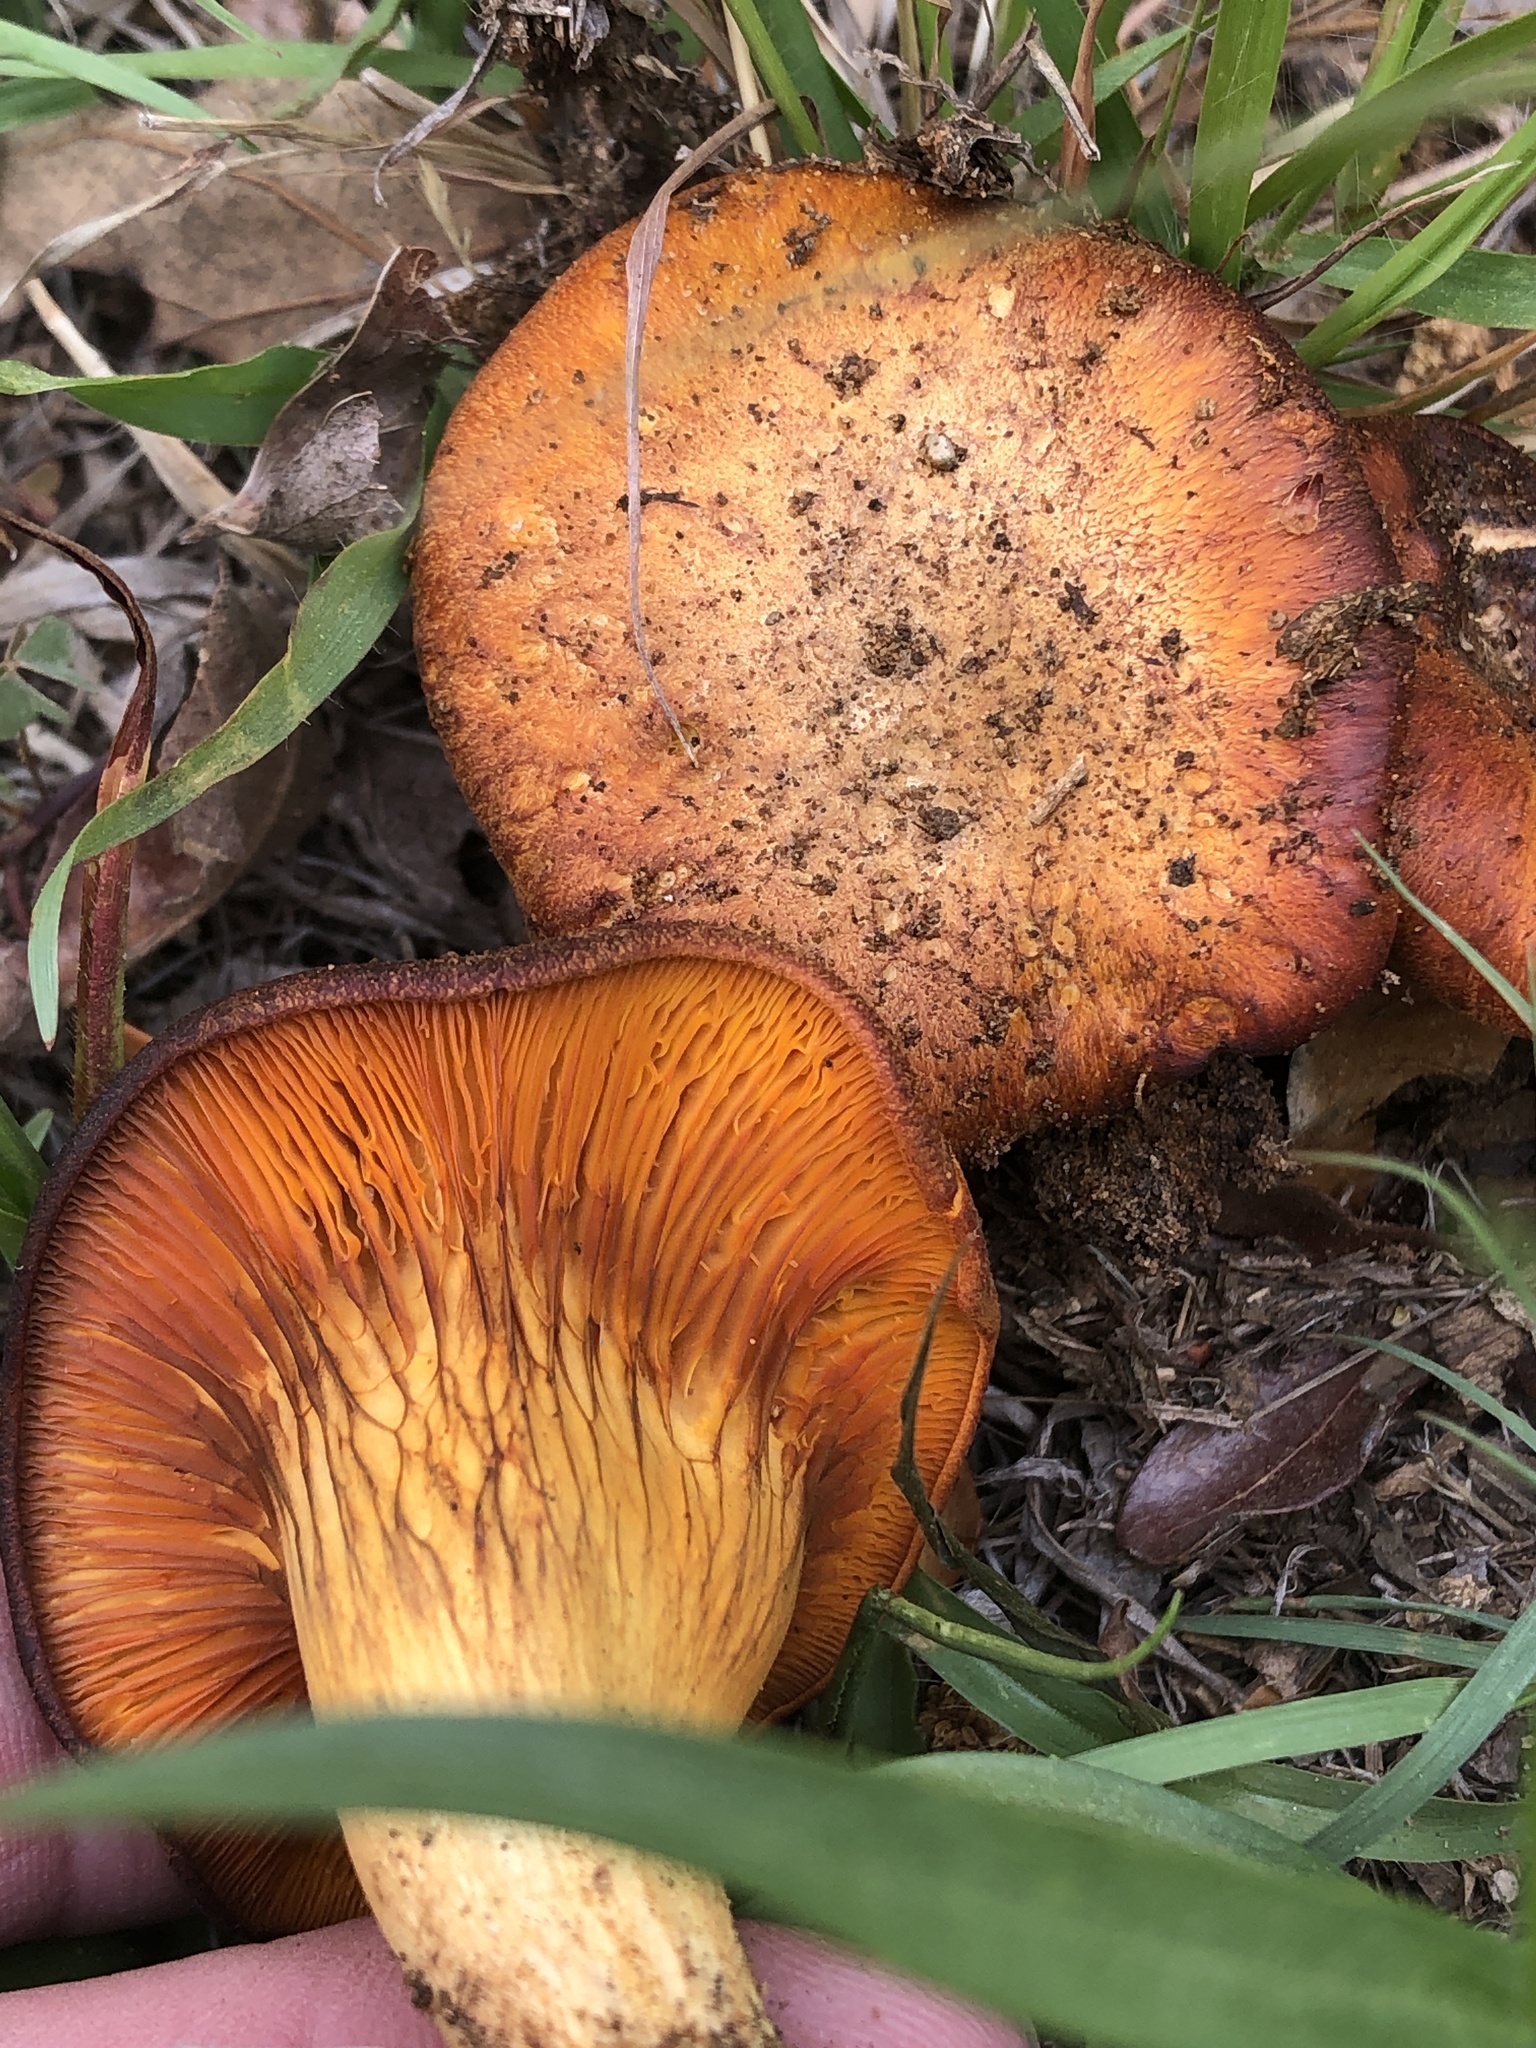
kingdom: Fungi
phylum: Basidiomycota
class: Agaricomycetes
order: Agaricales
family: Omphalotaceae
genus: Omphalotus
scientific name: Omphalotus subilludens
